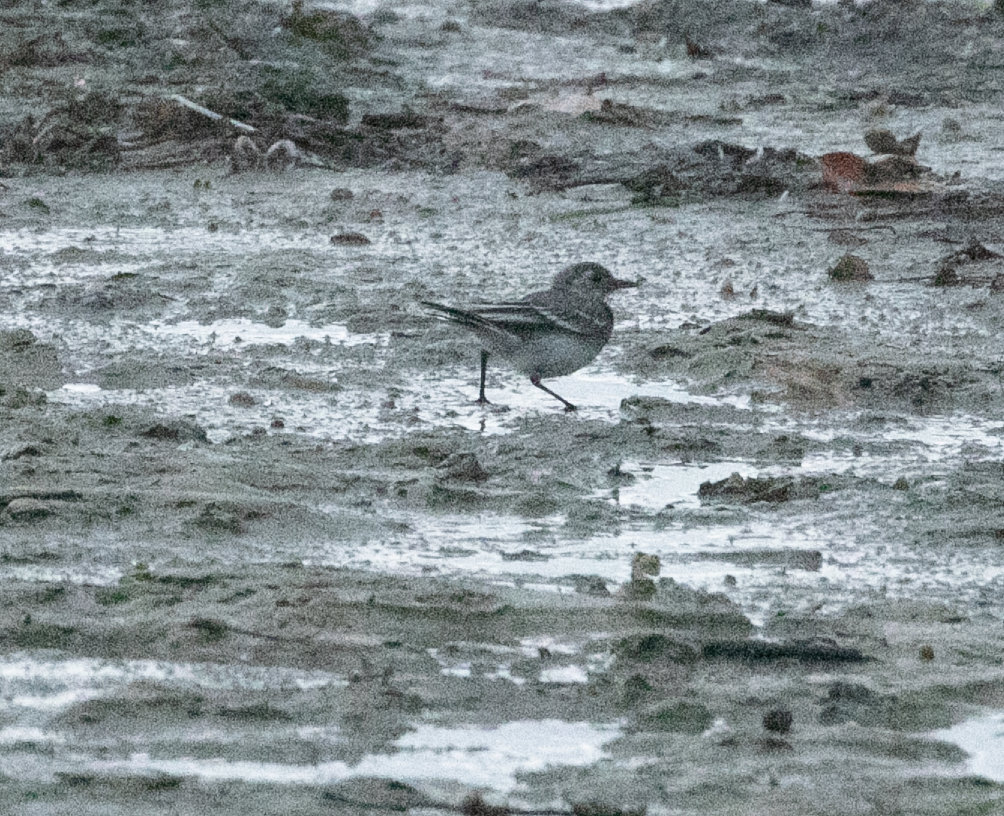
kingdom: Animalia
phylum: Chordata
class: Aves
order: Passeriformes
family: Motacillidae
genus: Motacilla
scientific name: Motacilla alba
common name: White wagtail
